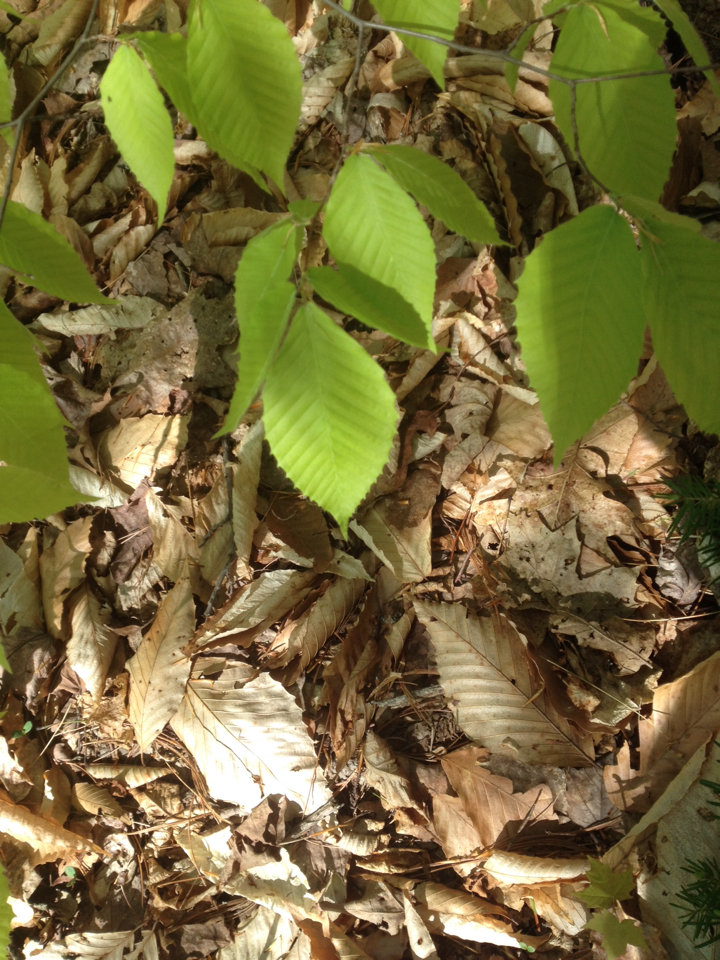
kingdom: Plantae
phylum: Tracheophyta
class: Magnoliopsida
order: Fagales
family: Fagaceae
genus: Fagus
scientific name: Fagus grandifolia
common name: American beech
